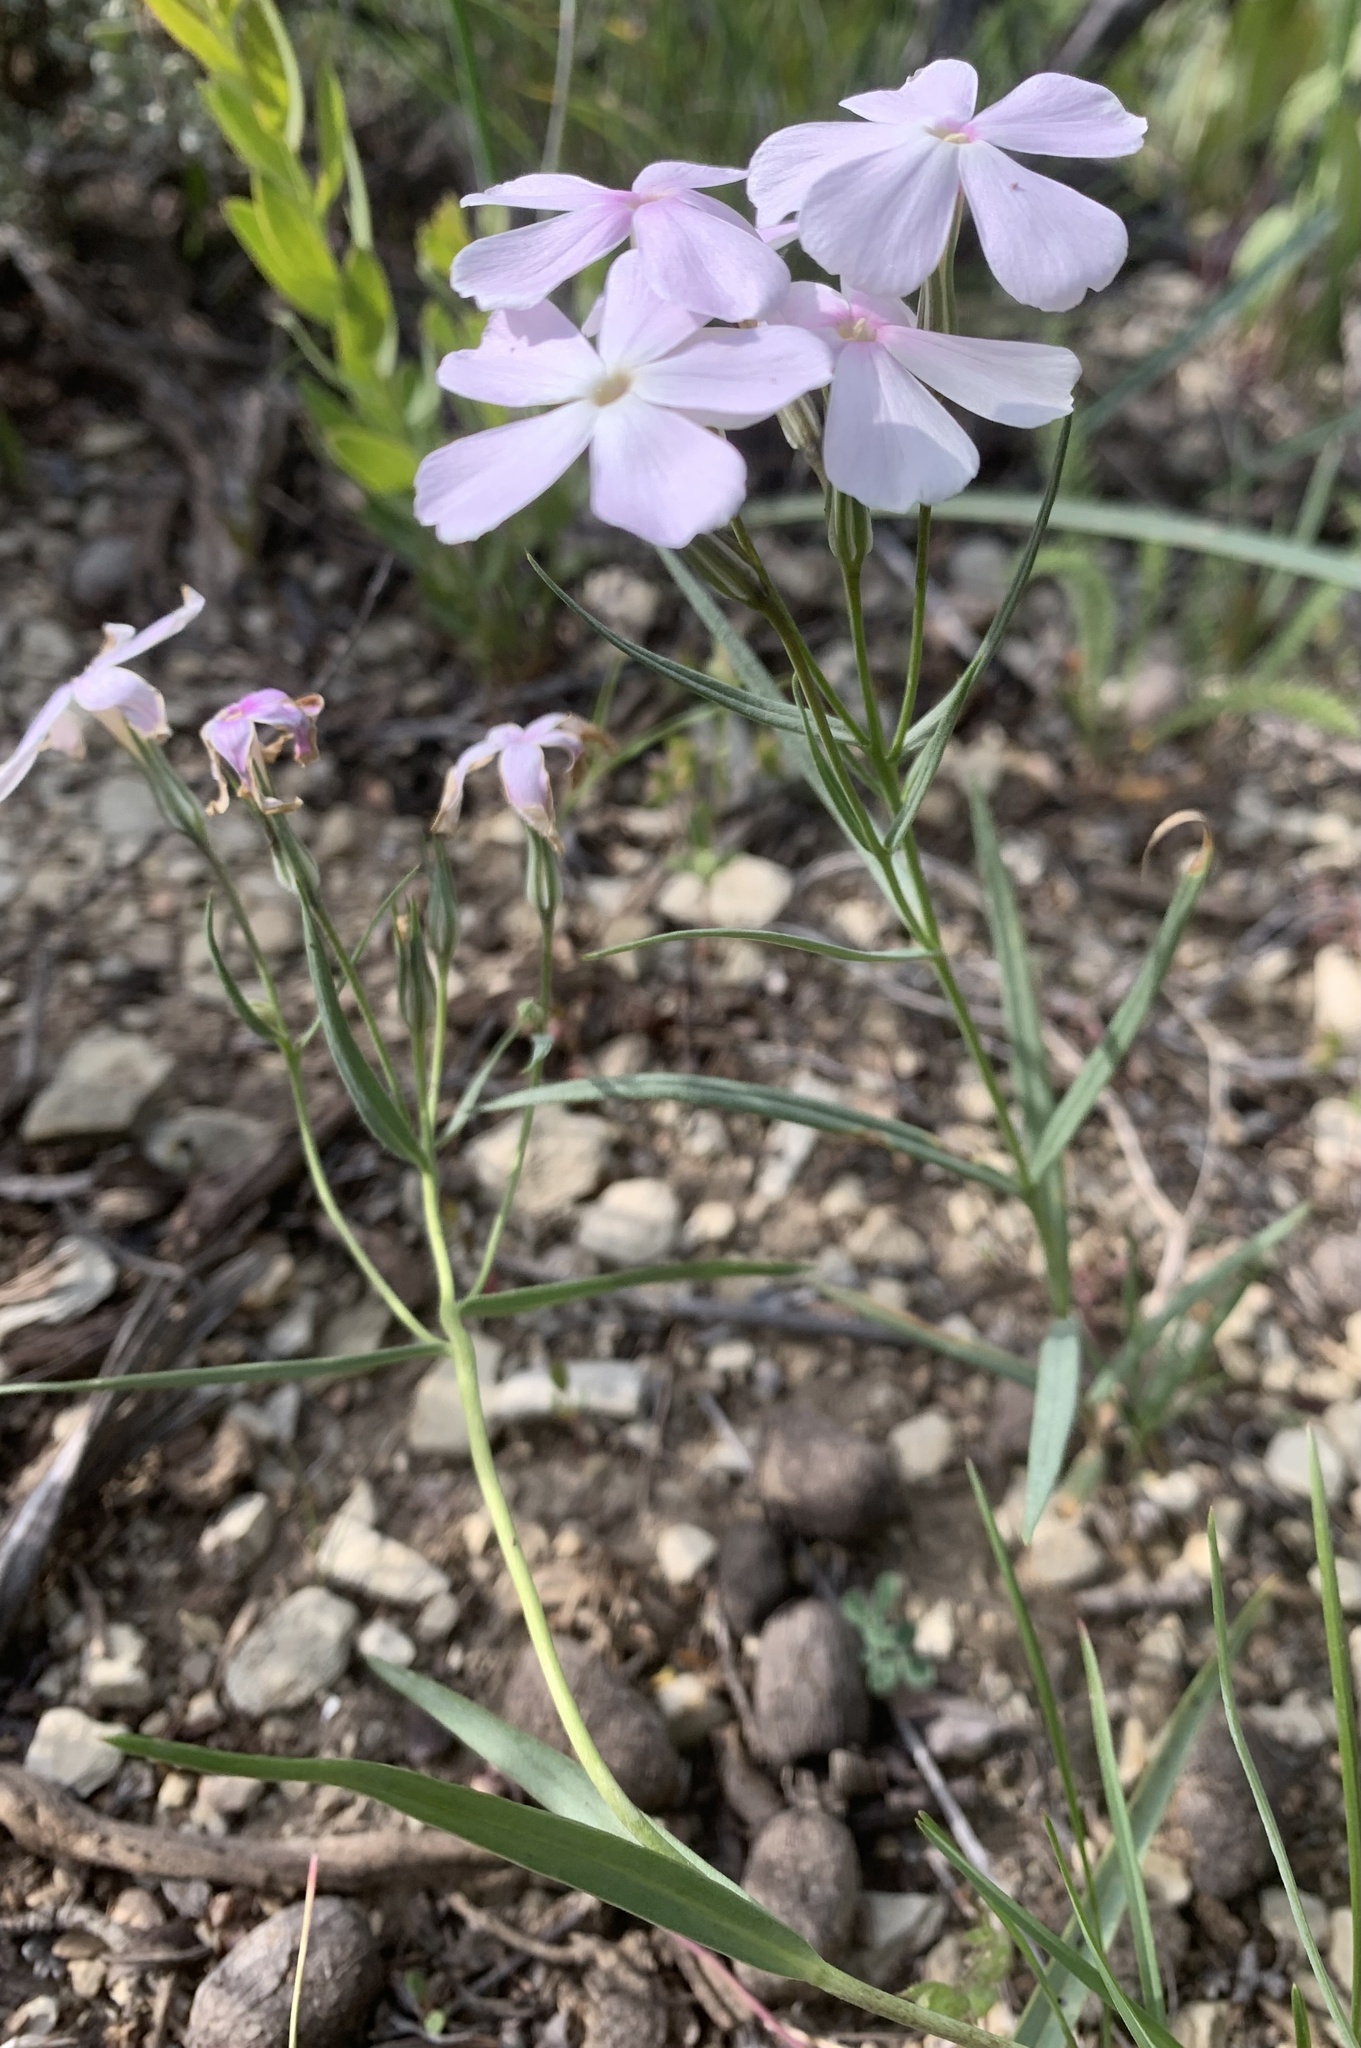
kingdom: Plantae
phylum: Tracheophyta
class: Magnoliopsida
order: Ericales
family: Polemoniaceae
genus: Phlox
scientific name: Phlox longifolia
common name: Longleaf phlox
